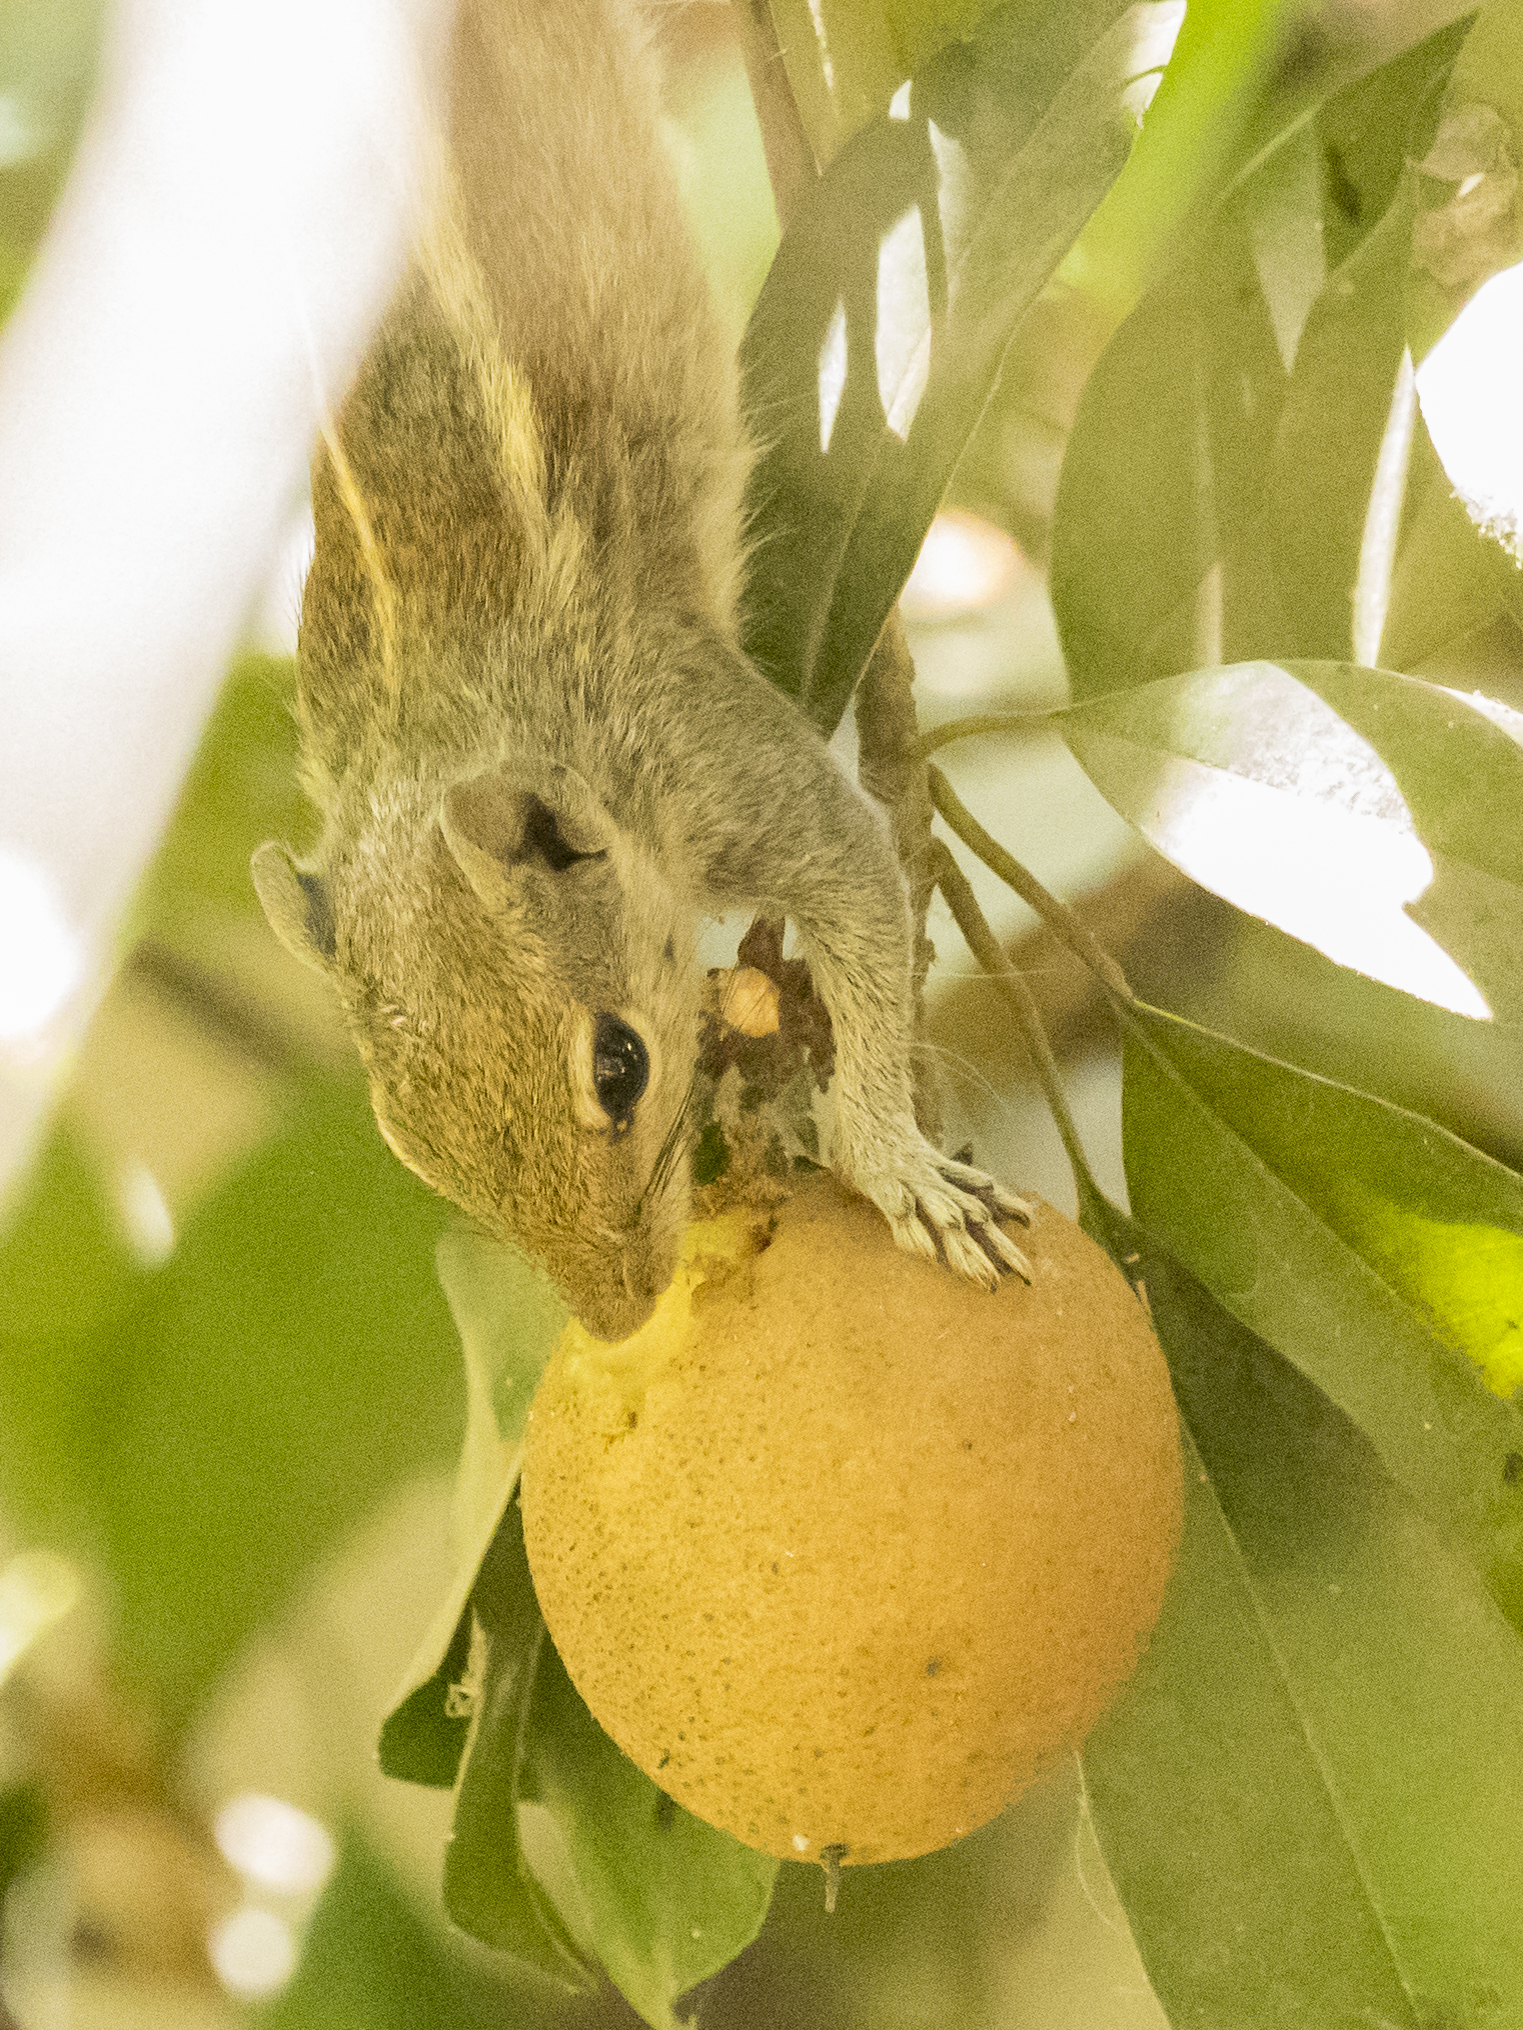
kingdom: Animalia
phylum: Chordata
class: Mammalia
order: Rodentia
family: Sciuridae
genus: Funambulus
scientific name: Funambulus palmarum
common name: Indian palm squirrel
